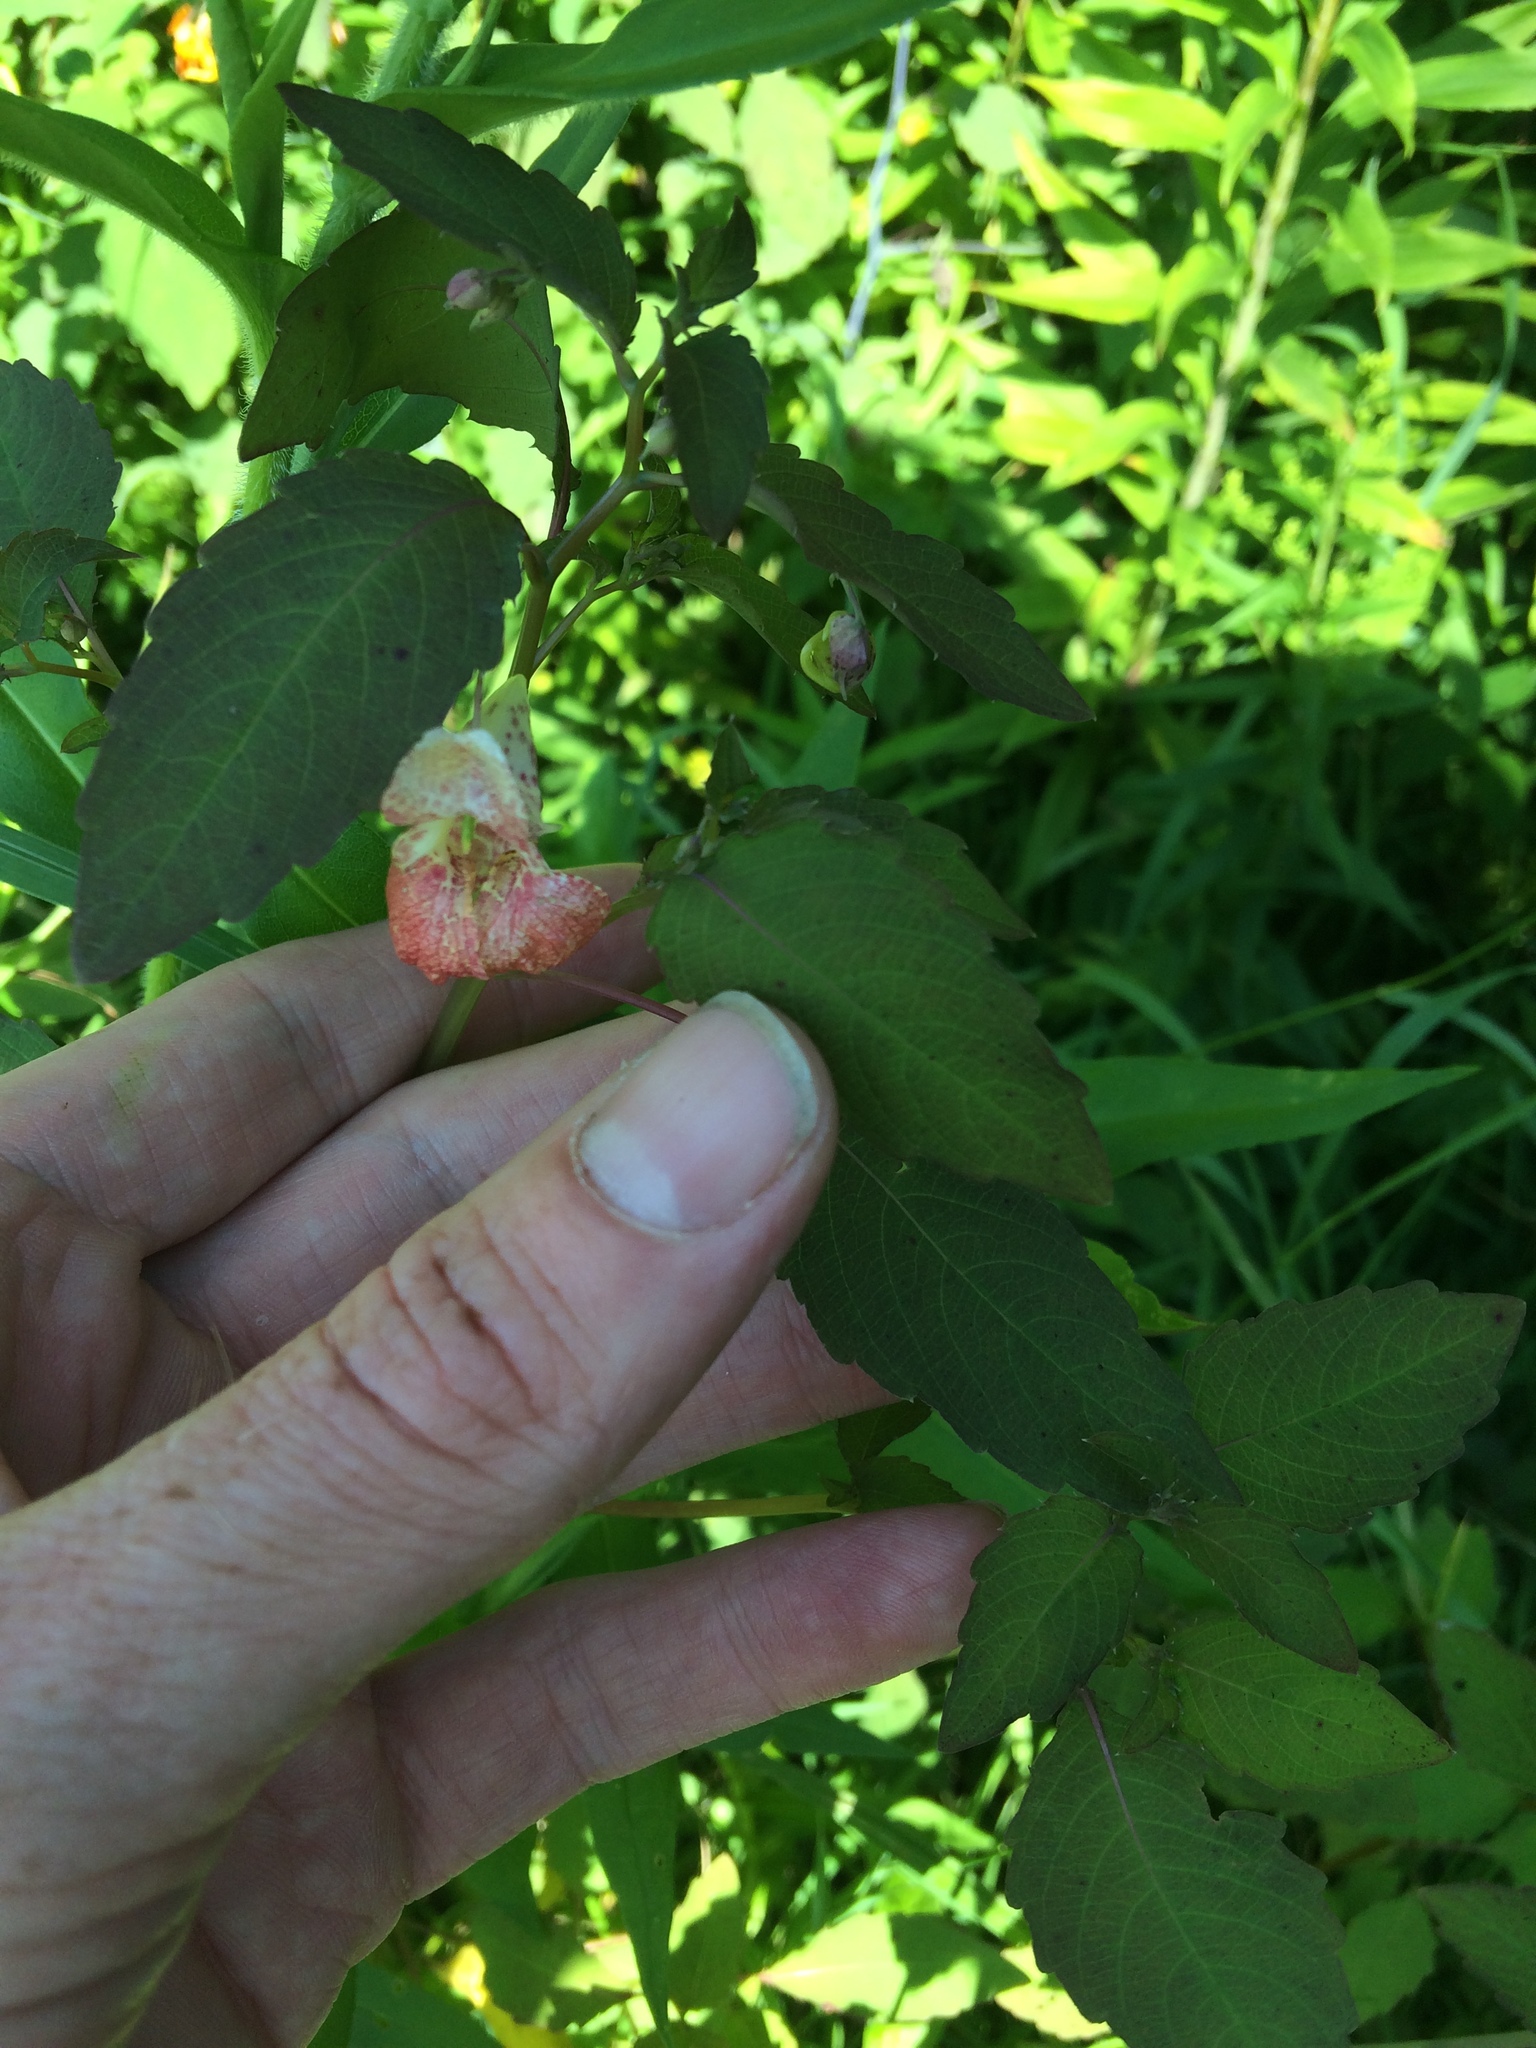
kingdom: Plantae
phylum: Tracheophyta
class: Magnoliopsida
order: Ericales
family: Balsaminaceae
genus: Impatiens
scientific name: Impatiens capensis
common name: Orange balsam
